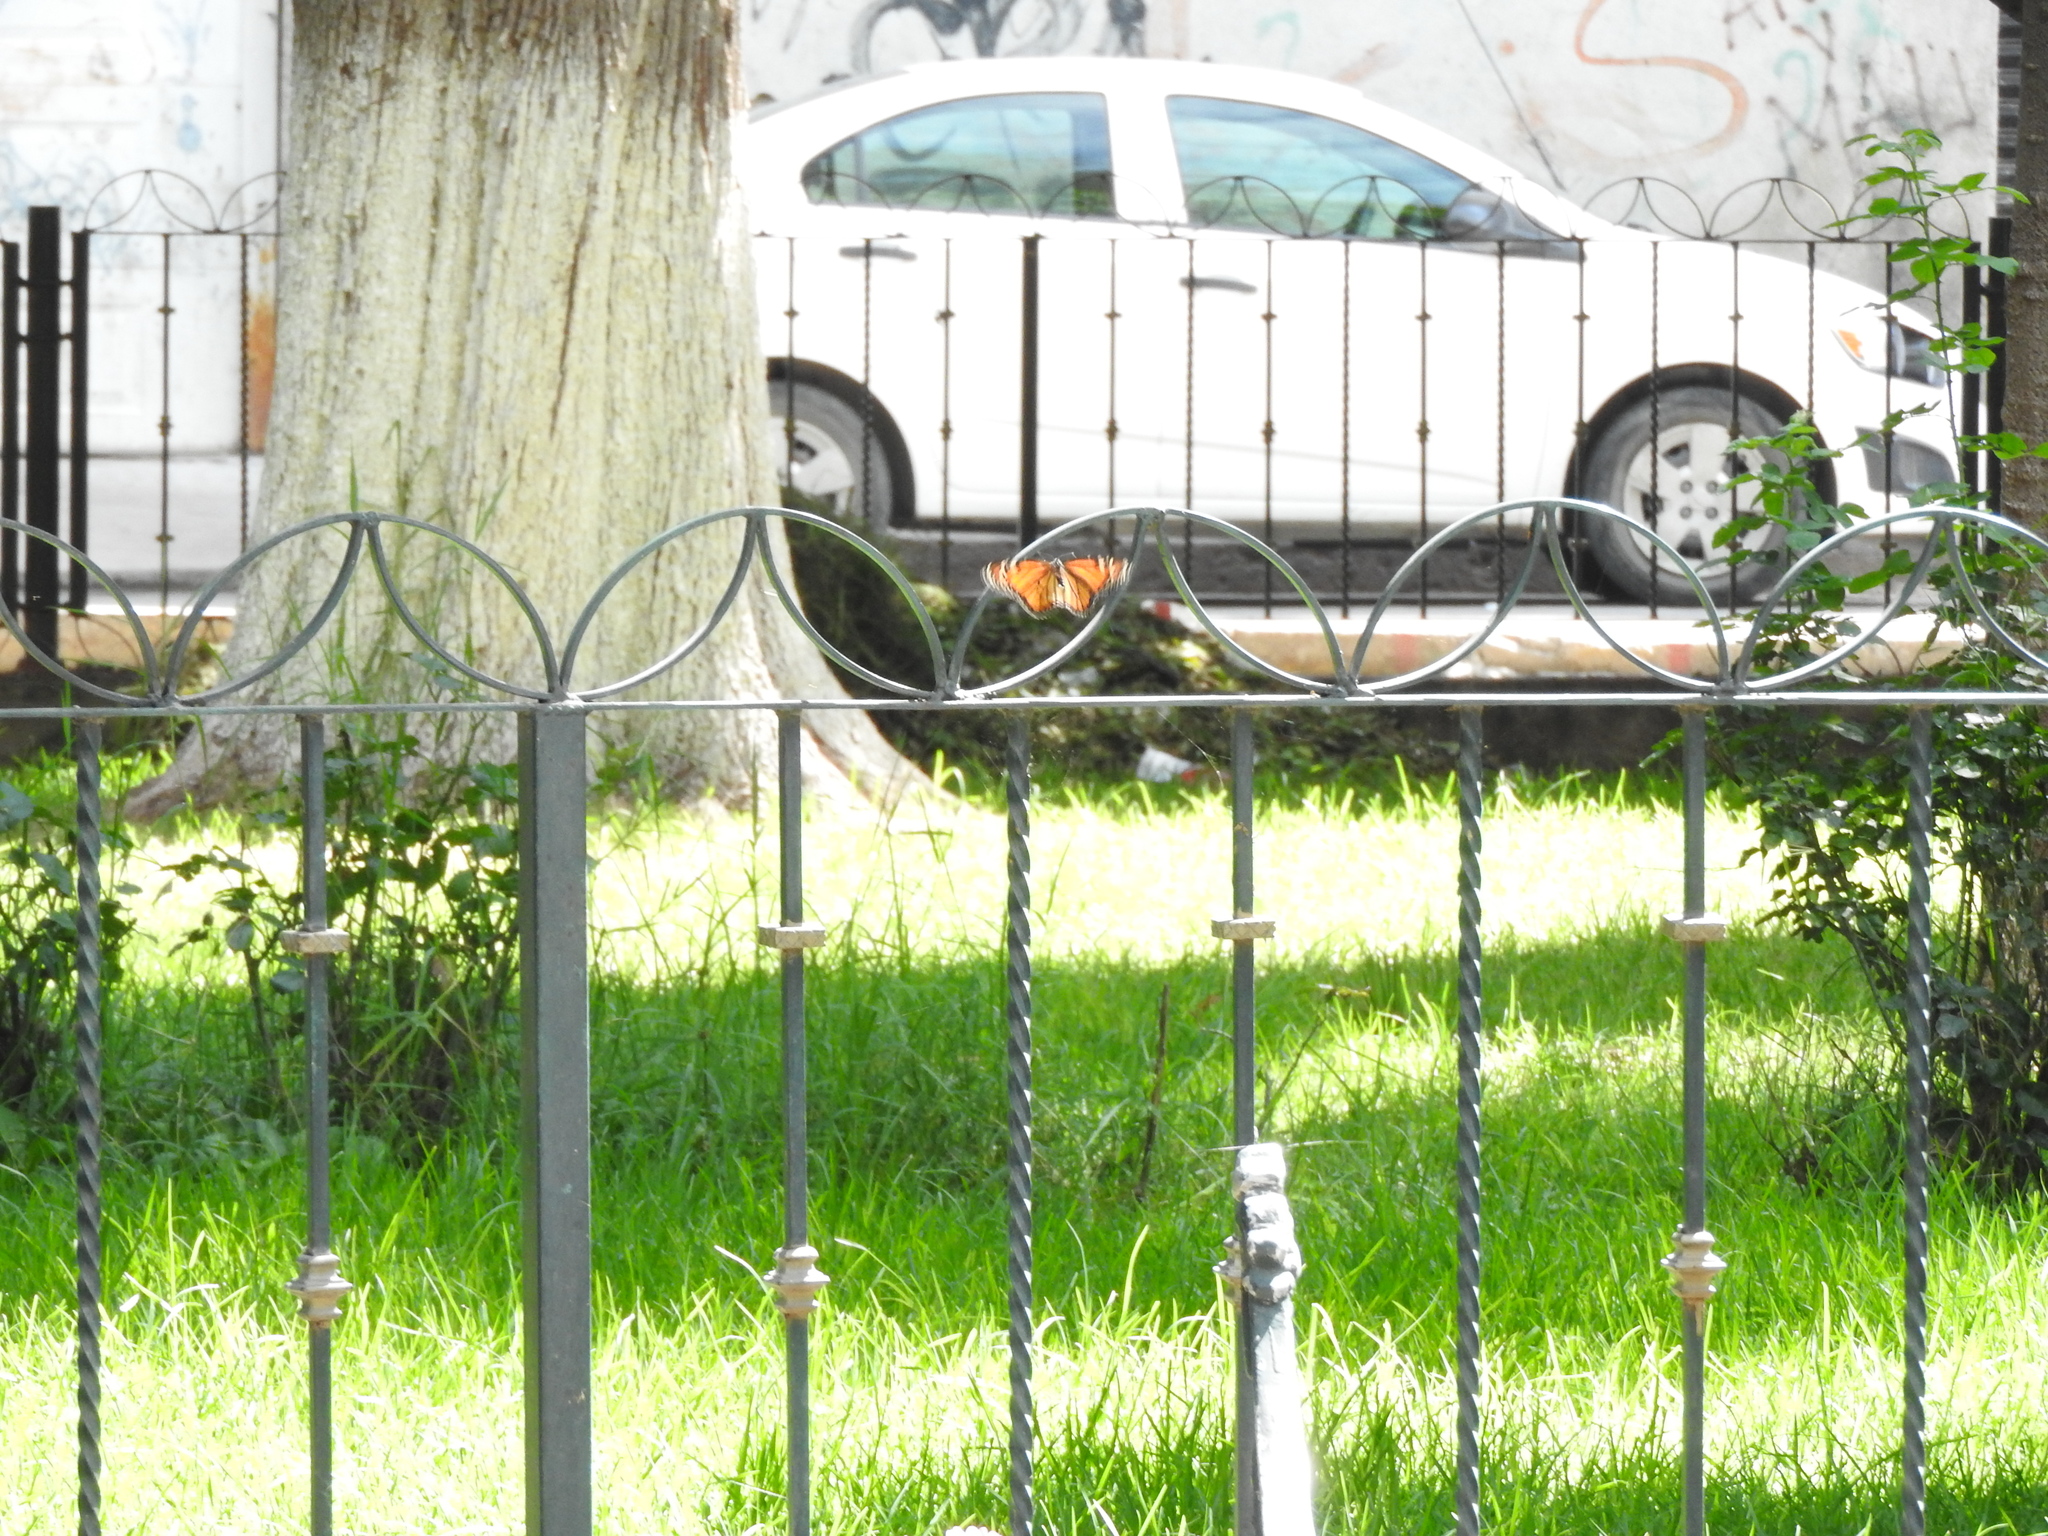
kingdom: Animalia
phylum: Arthropoda
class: Insecta
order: Lepidoptera
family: Nymphalidae
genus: Danaus
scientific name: Danaus plexippus
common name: Monarch
